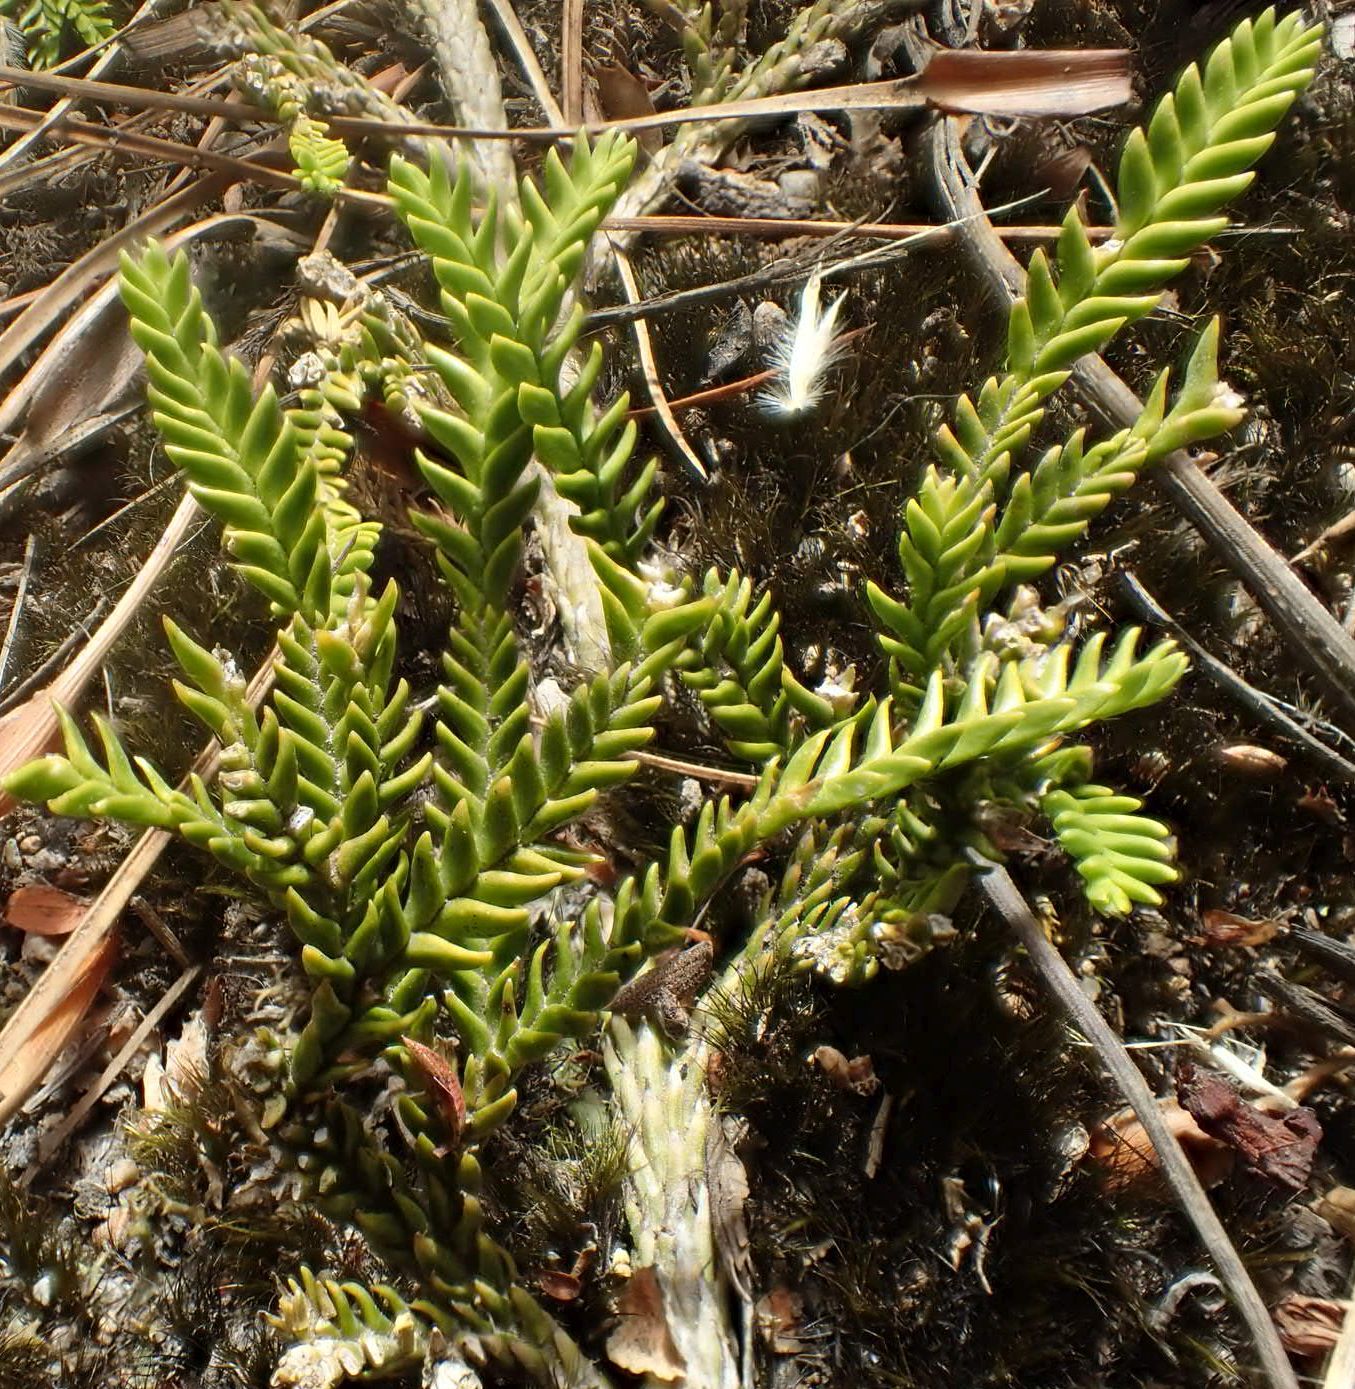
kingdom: Plantae
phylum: Tracheophyta
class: Lycopodiopsida
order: Lycopodiales
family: Lycopodiaceae
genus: Diphasium
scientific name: Diphasium scariosum
